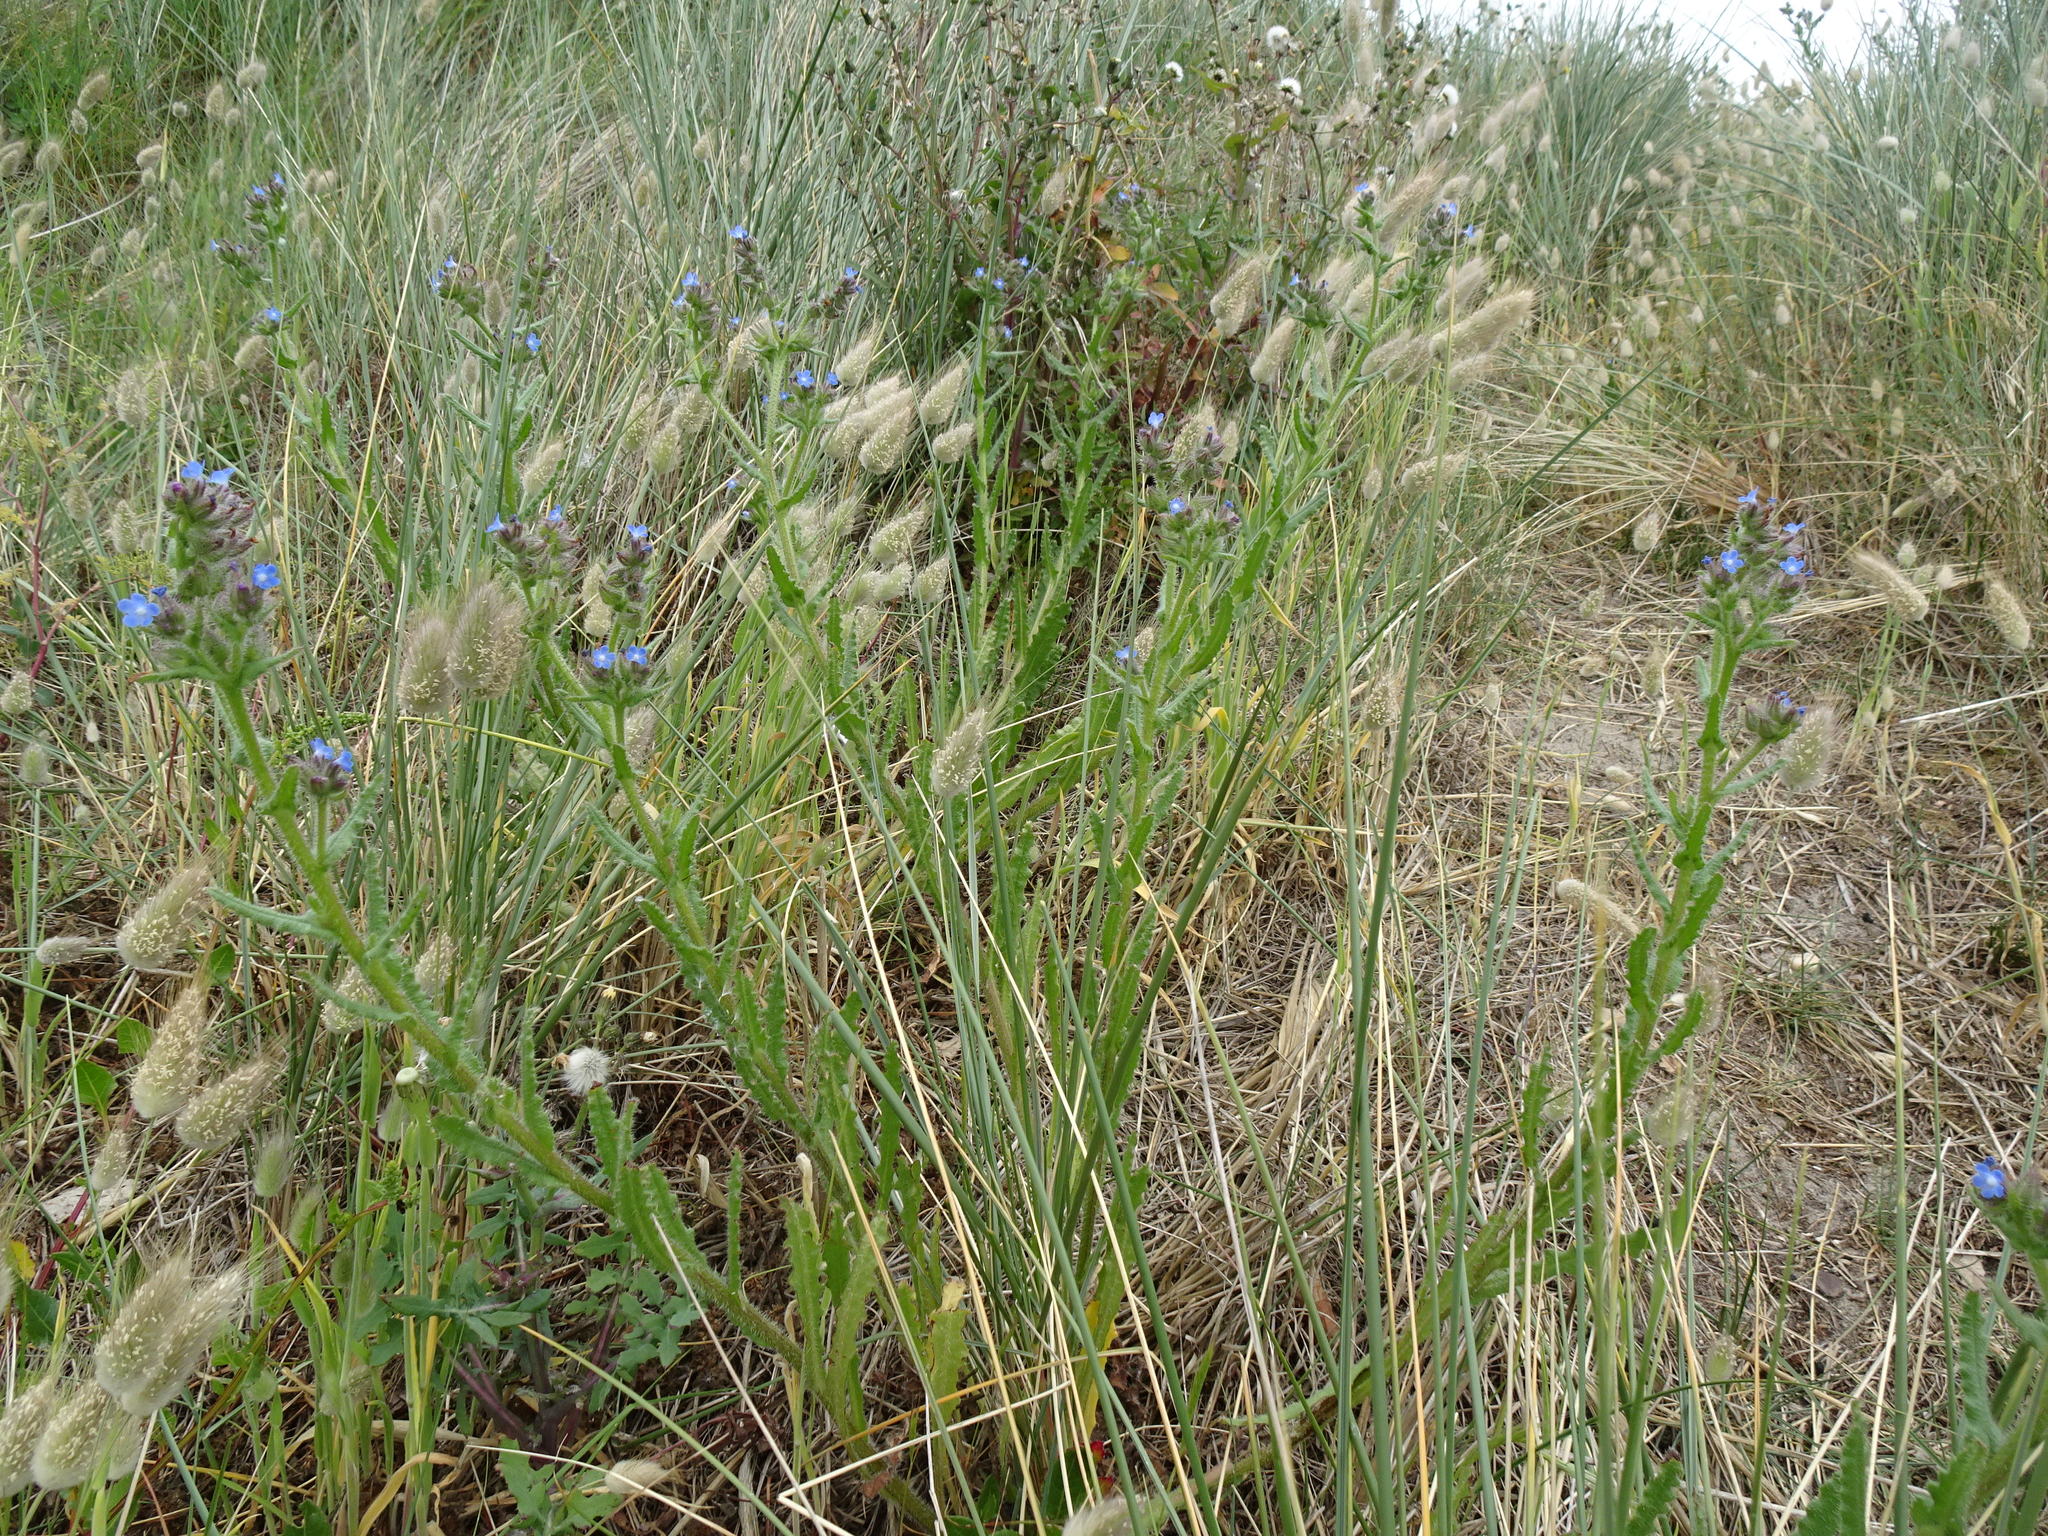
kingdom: Plantae
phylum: Tracheophyta
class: Magnoliopsida
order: Boraginales
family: Boraginaceae
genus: Lycopsis
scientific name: Lycopsis arvensis
